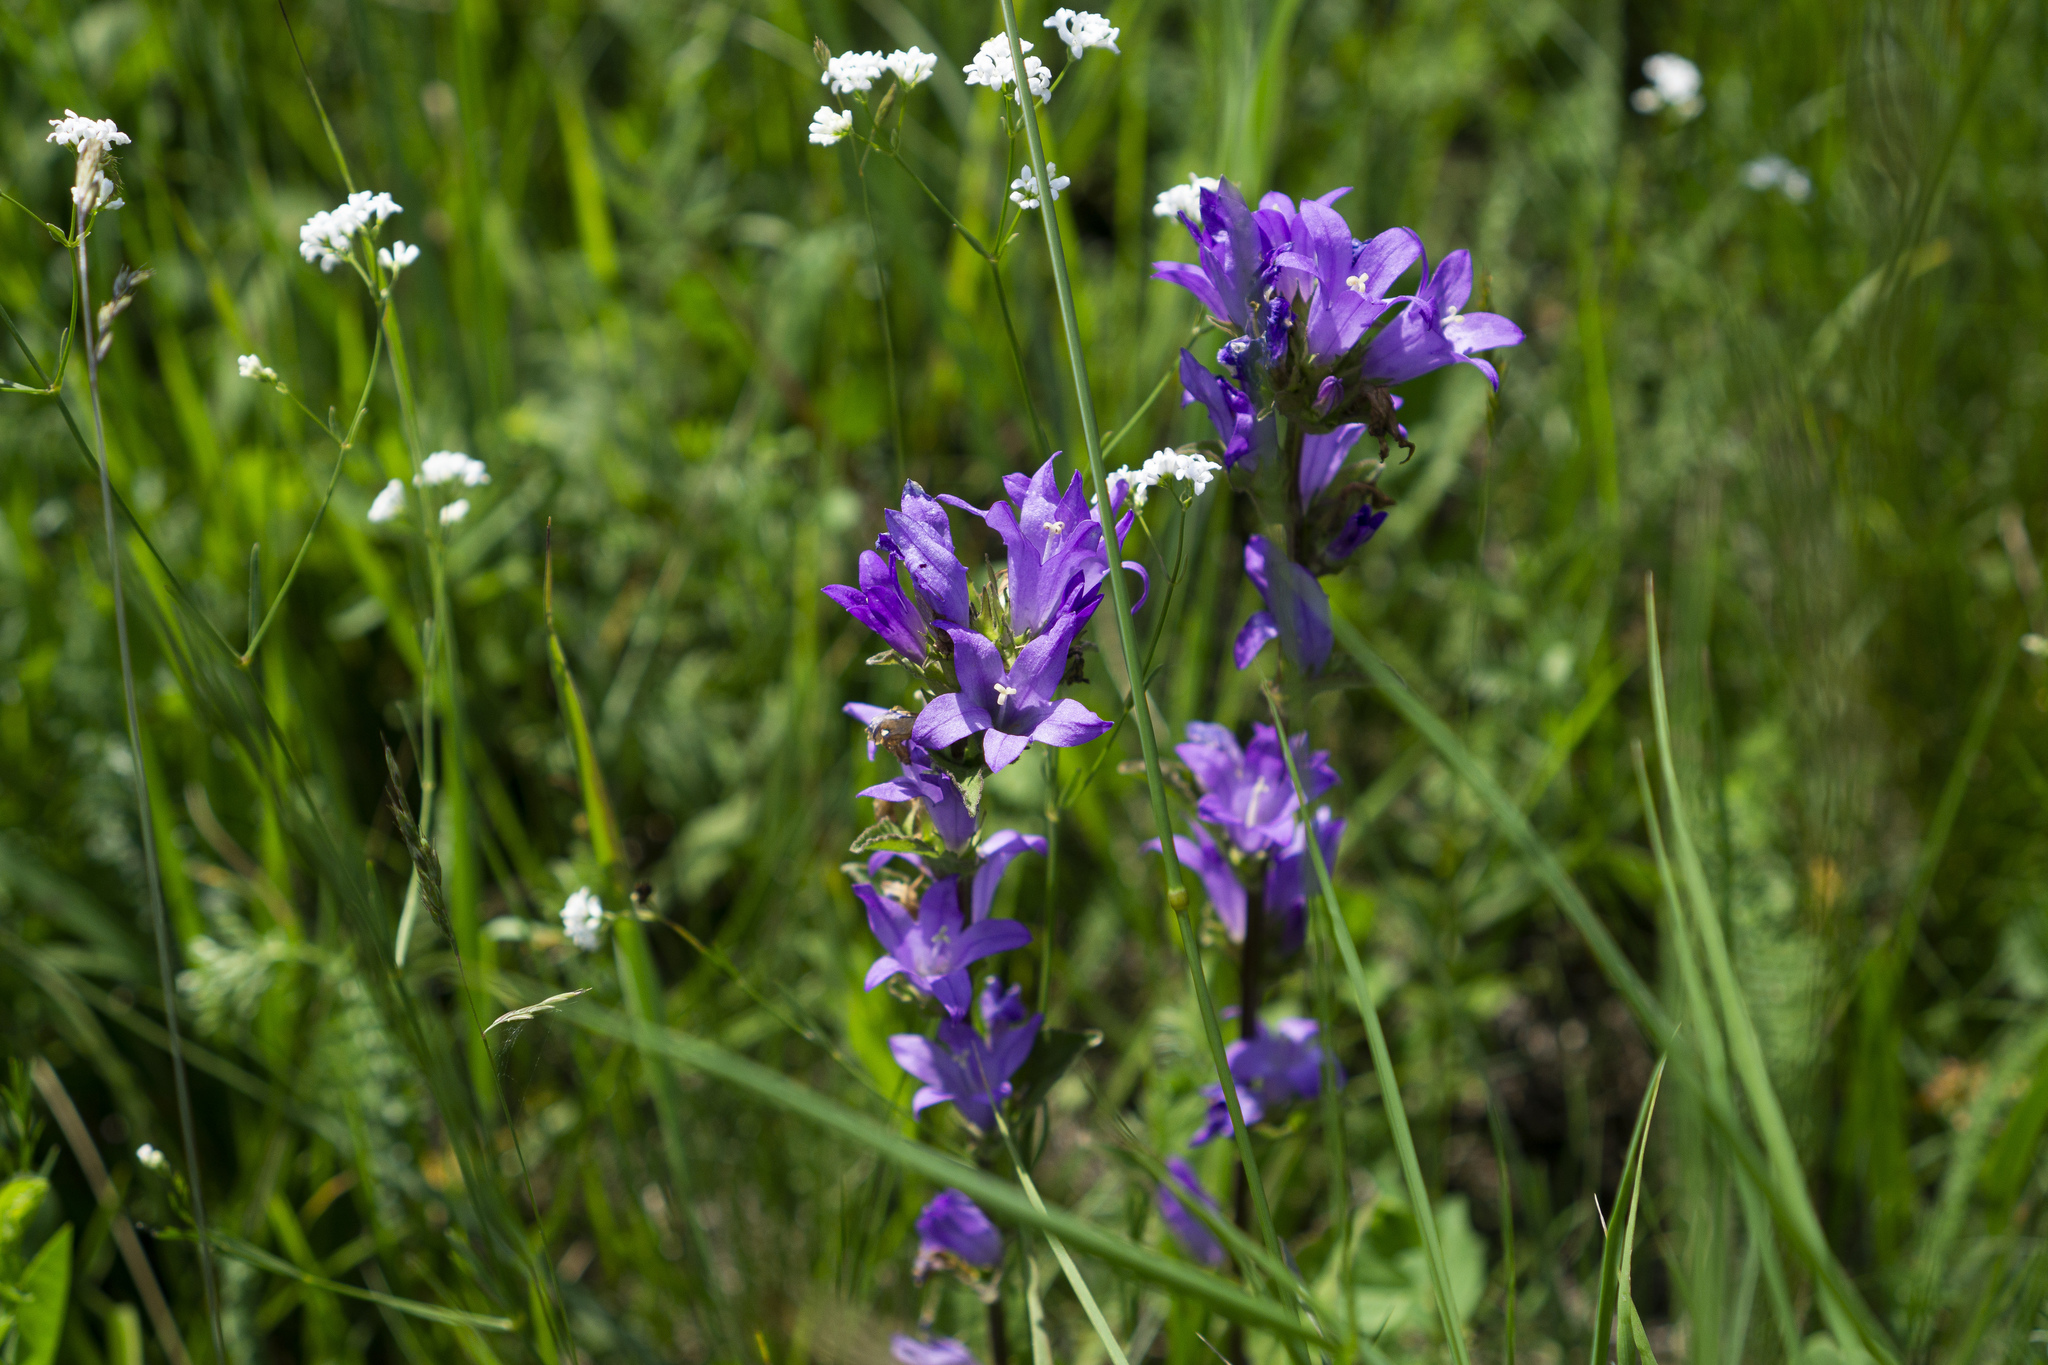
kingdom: Plantae
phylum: Tracheophyta
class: Magnoliopsida
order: Asterales
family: Campanulaceae
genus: Campanula
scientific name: Campanula glomerata
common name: Clustered bellflower
